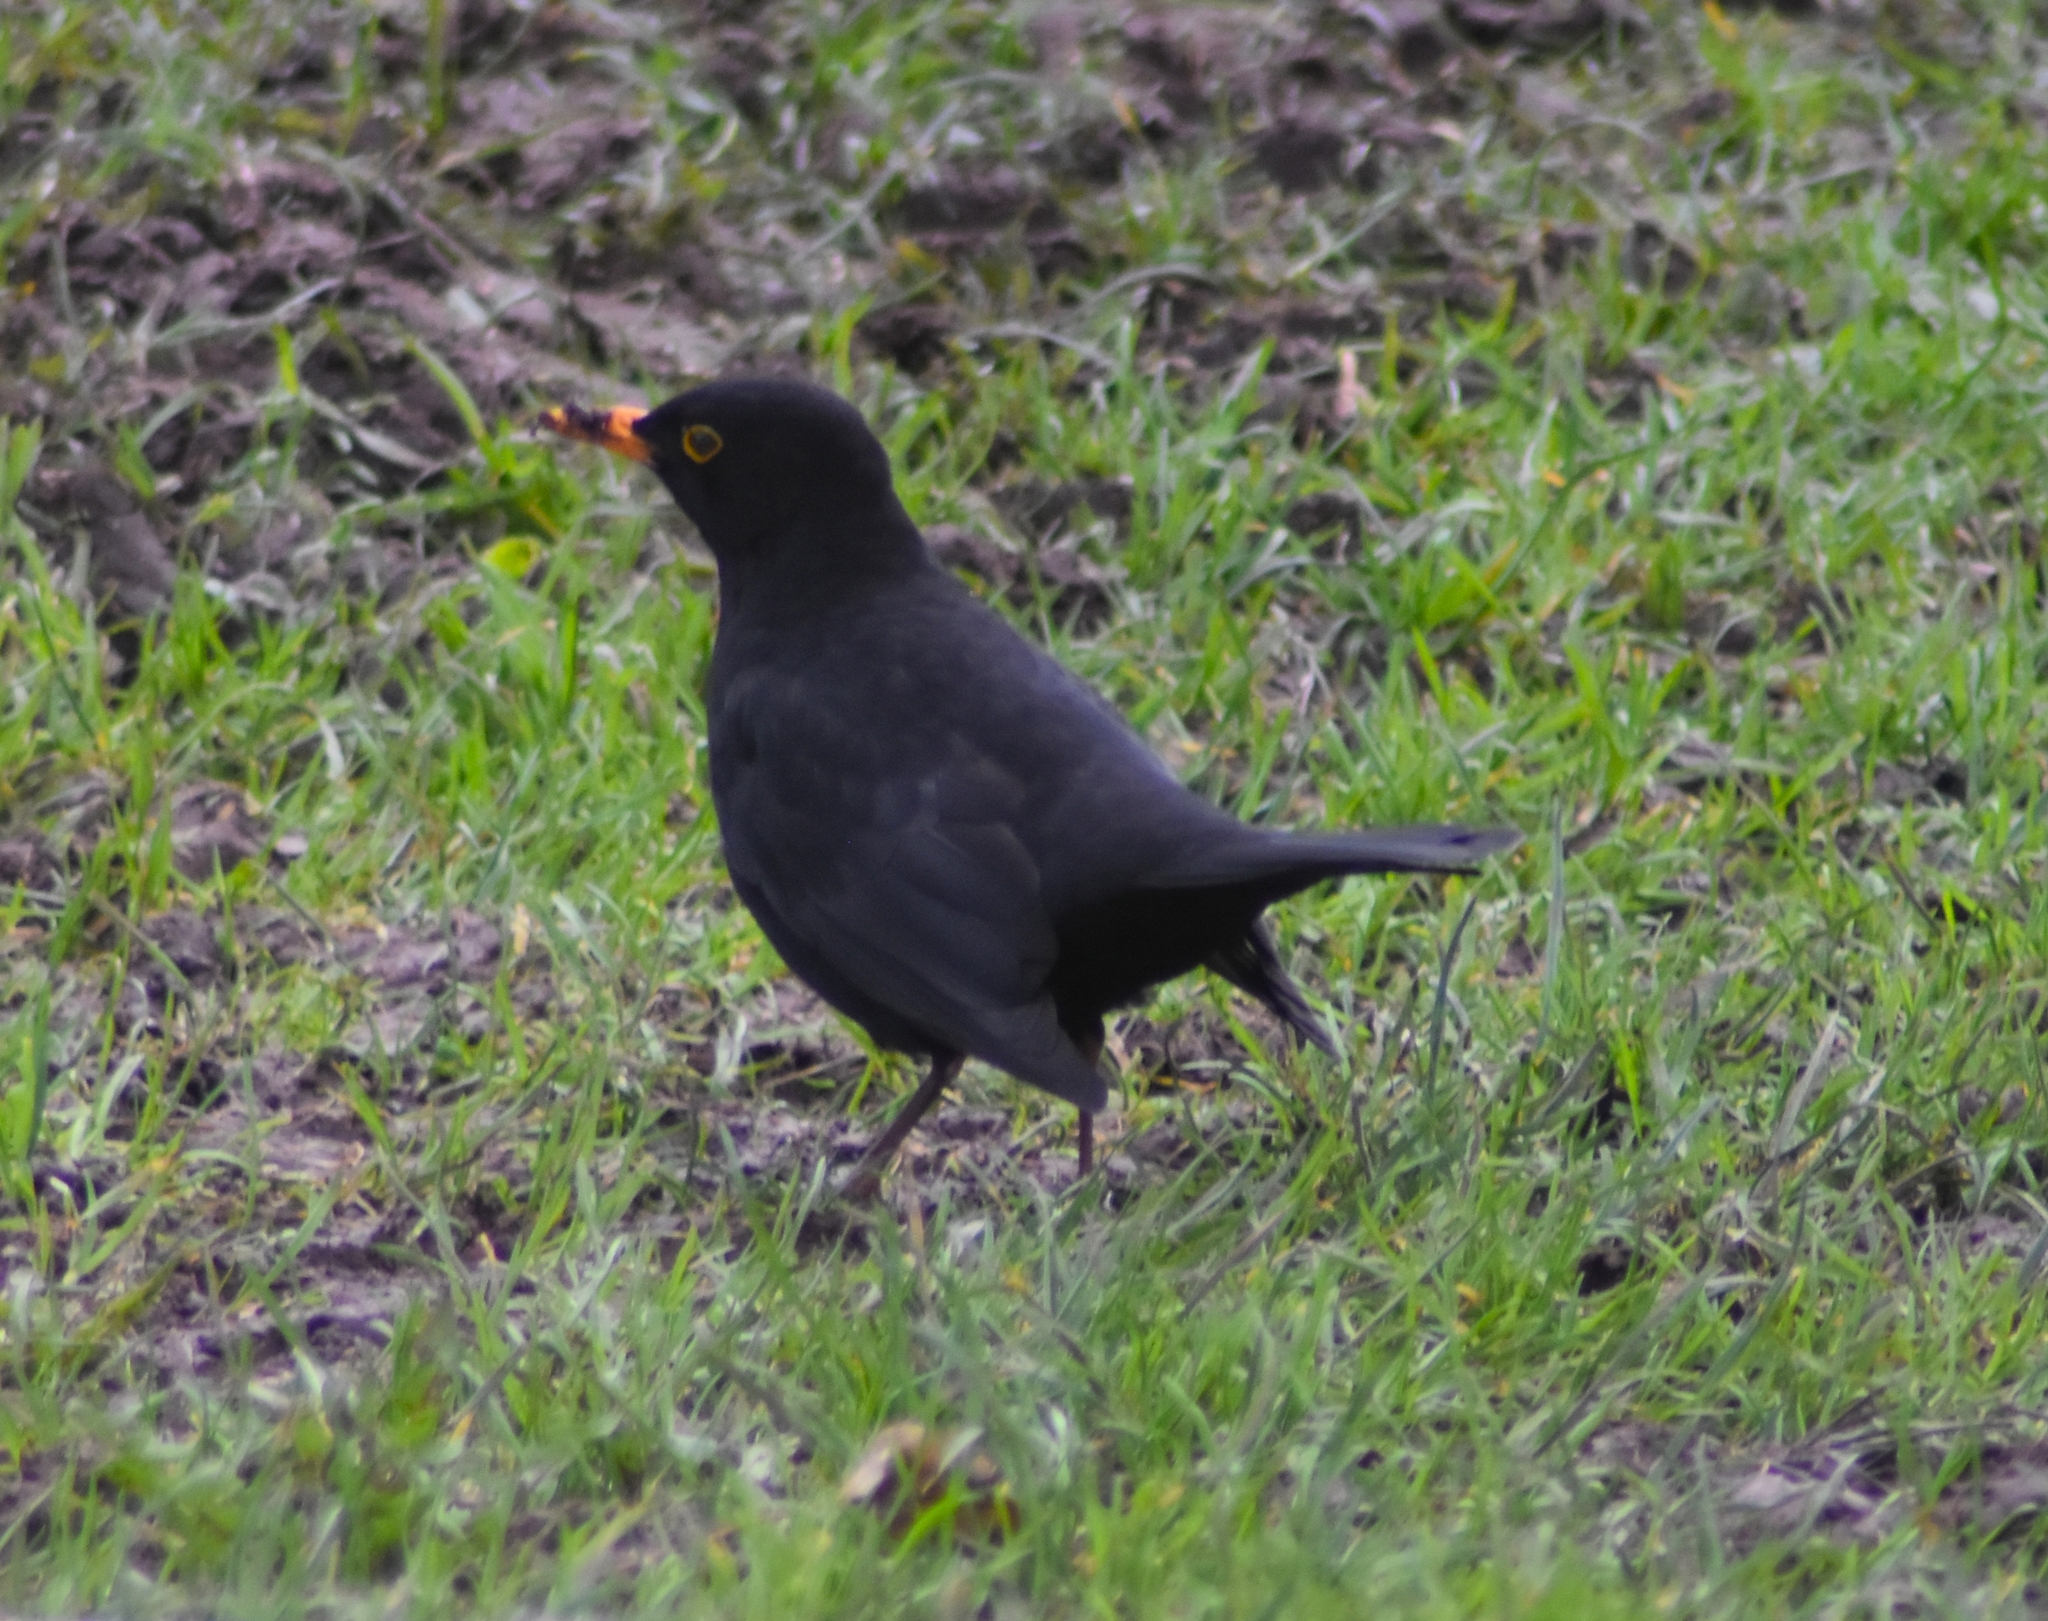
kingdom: Animalia
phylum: Chordata
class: Aves
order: Passeriformes
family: Turdidae
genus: Turdus
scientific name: Turdus merula
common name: Common blackbird
